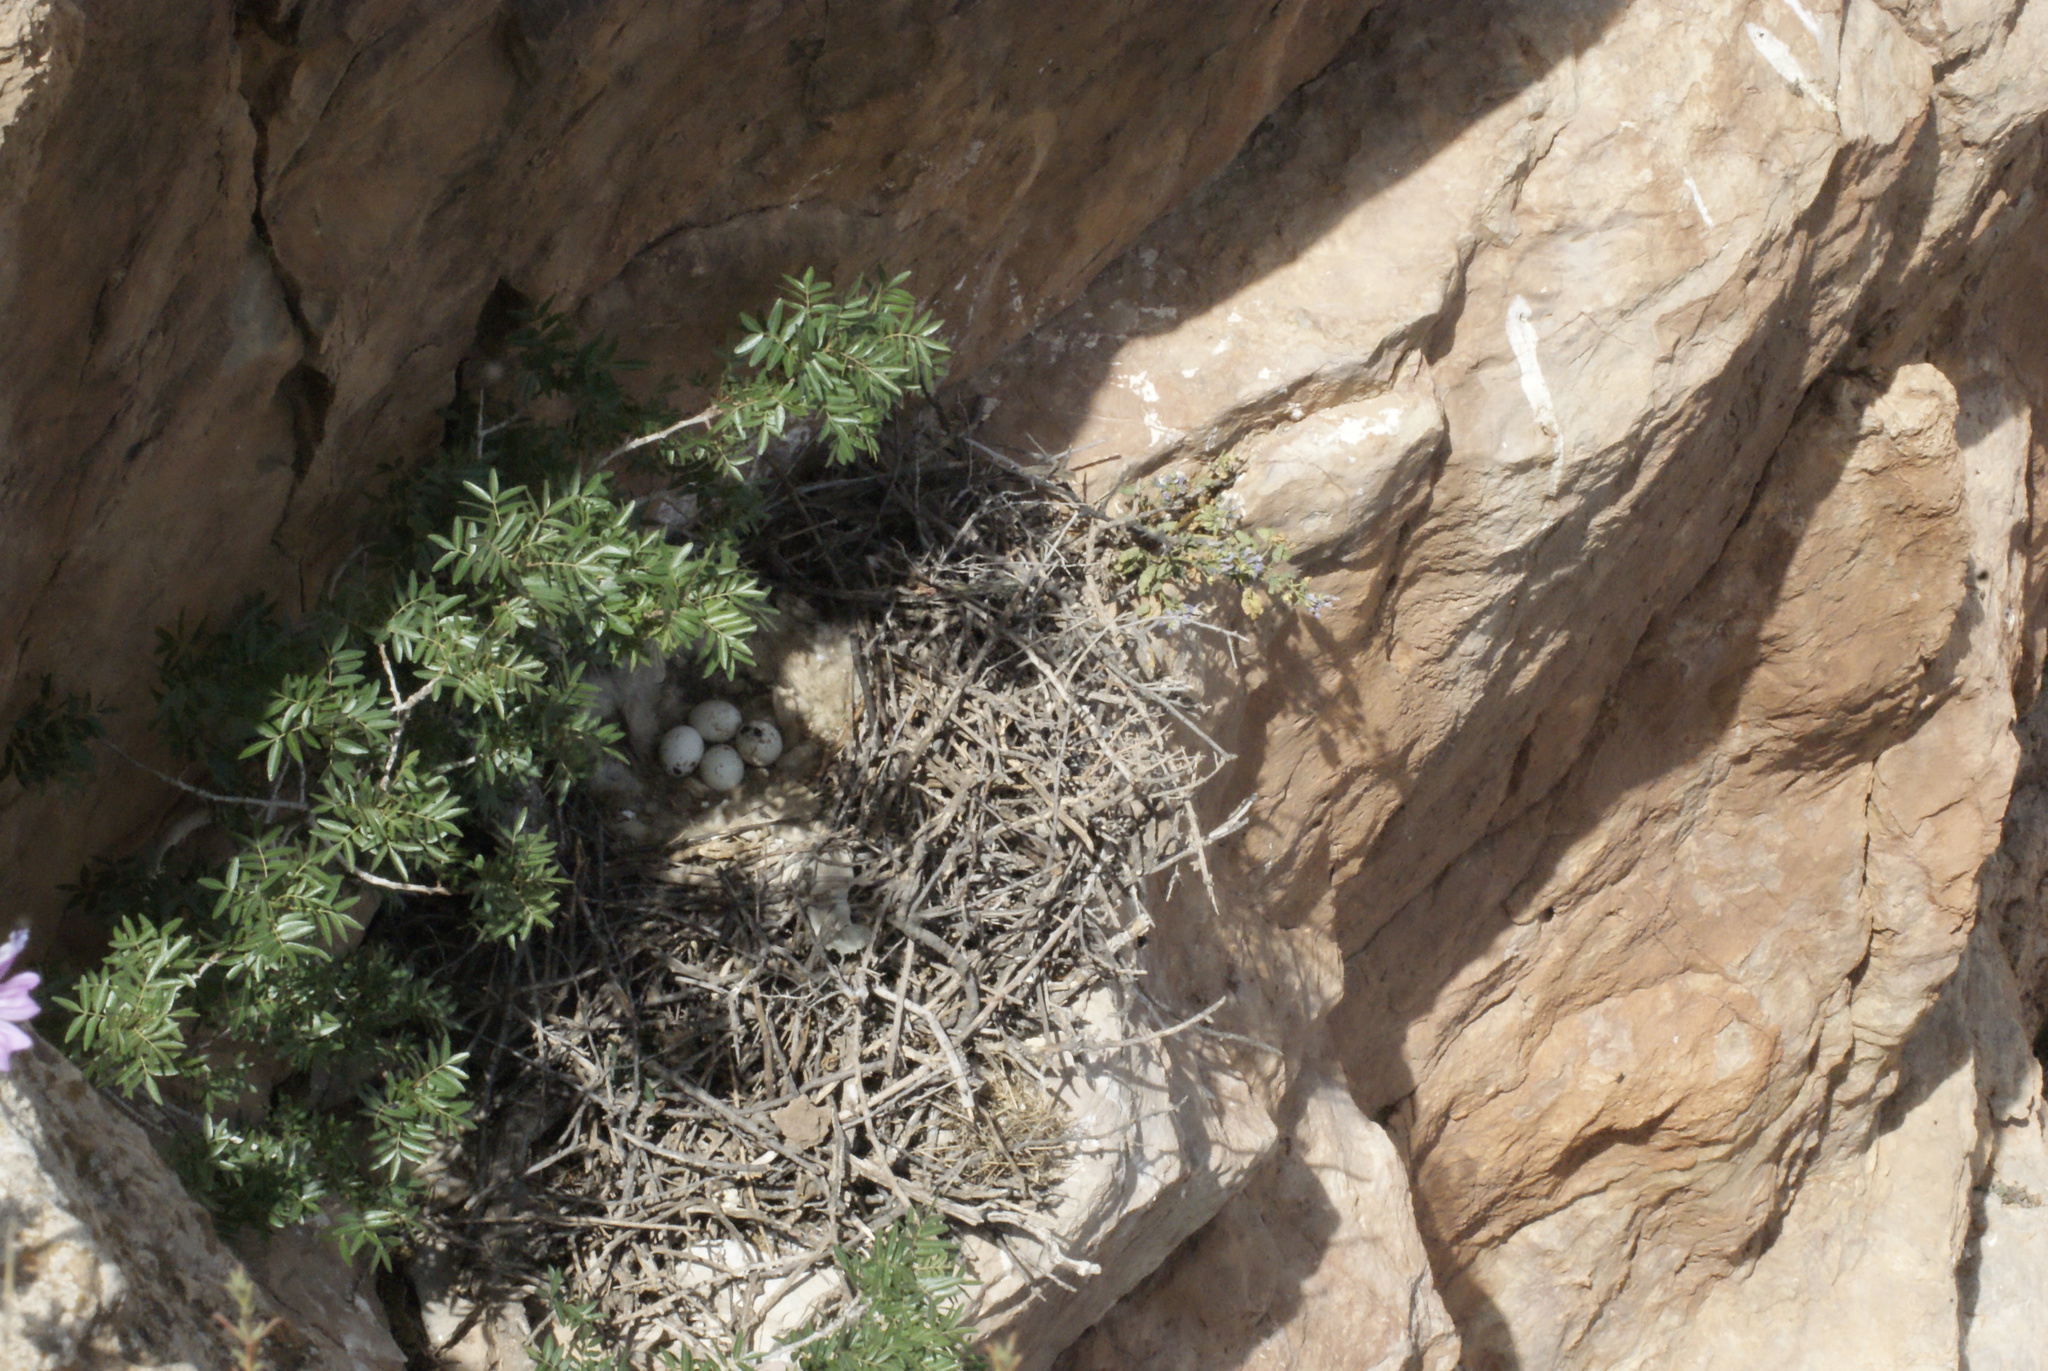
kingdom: Animalia
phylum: Chordata
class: Aves
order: Accipitriformes
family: Accipitridae
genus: Milvus
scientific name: Milvus migrans
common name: Black kite
